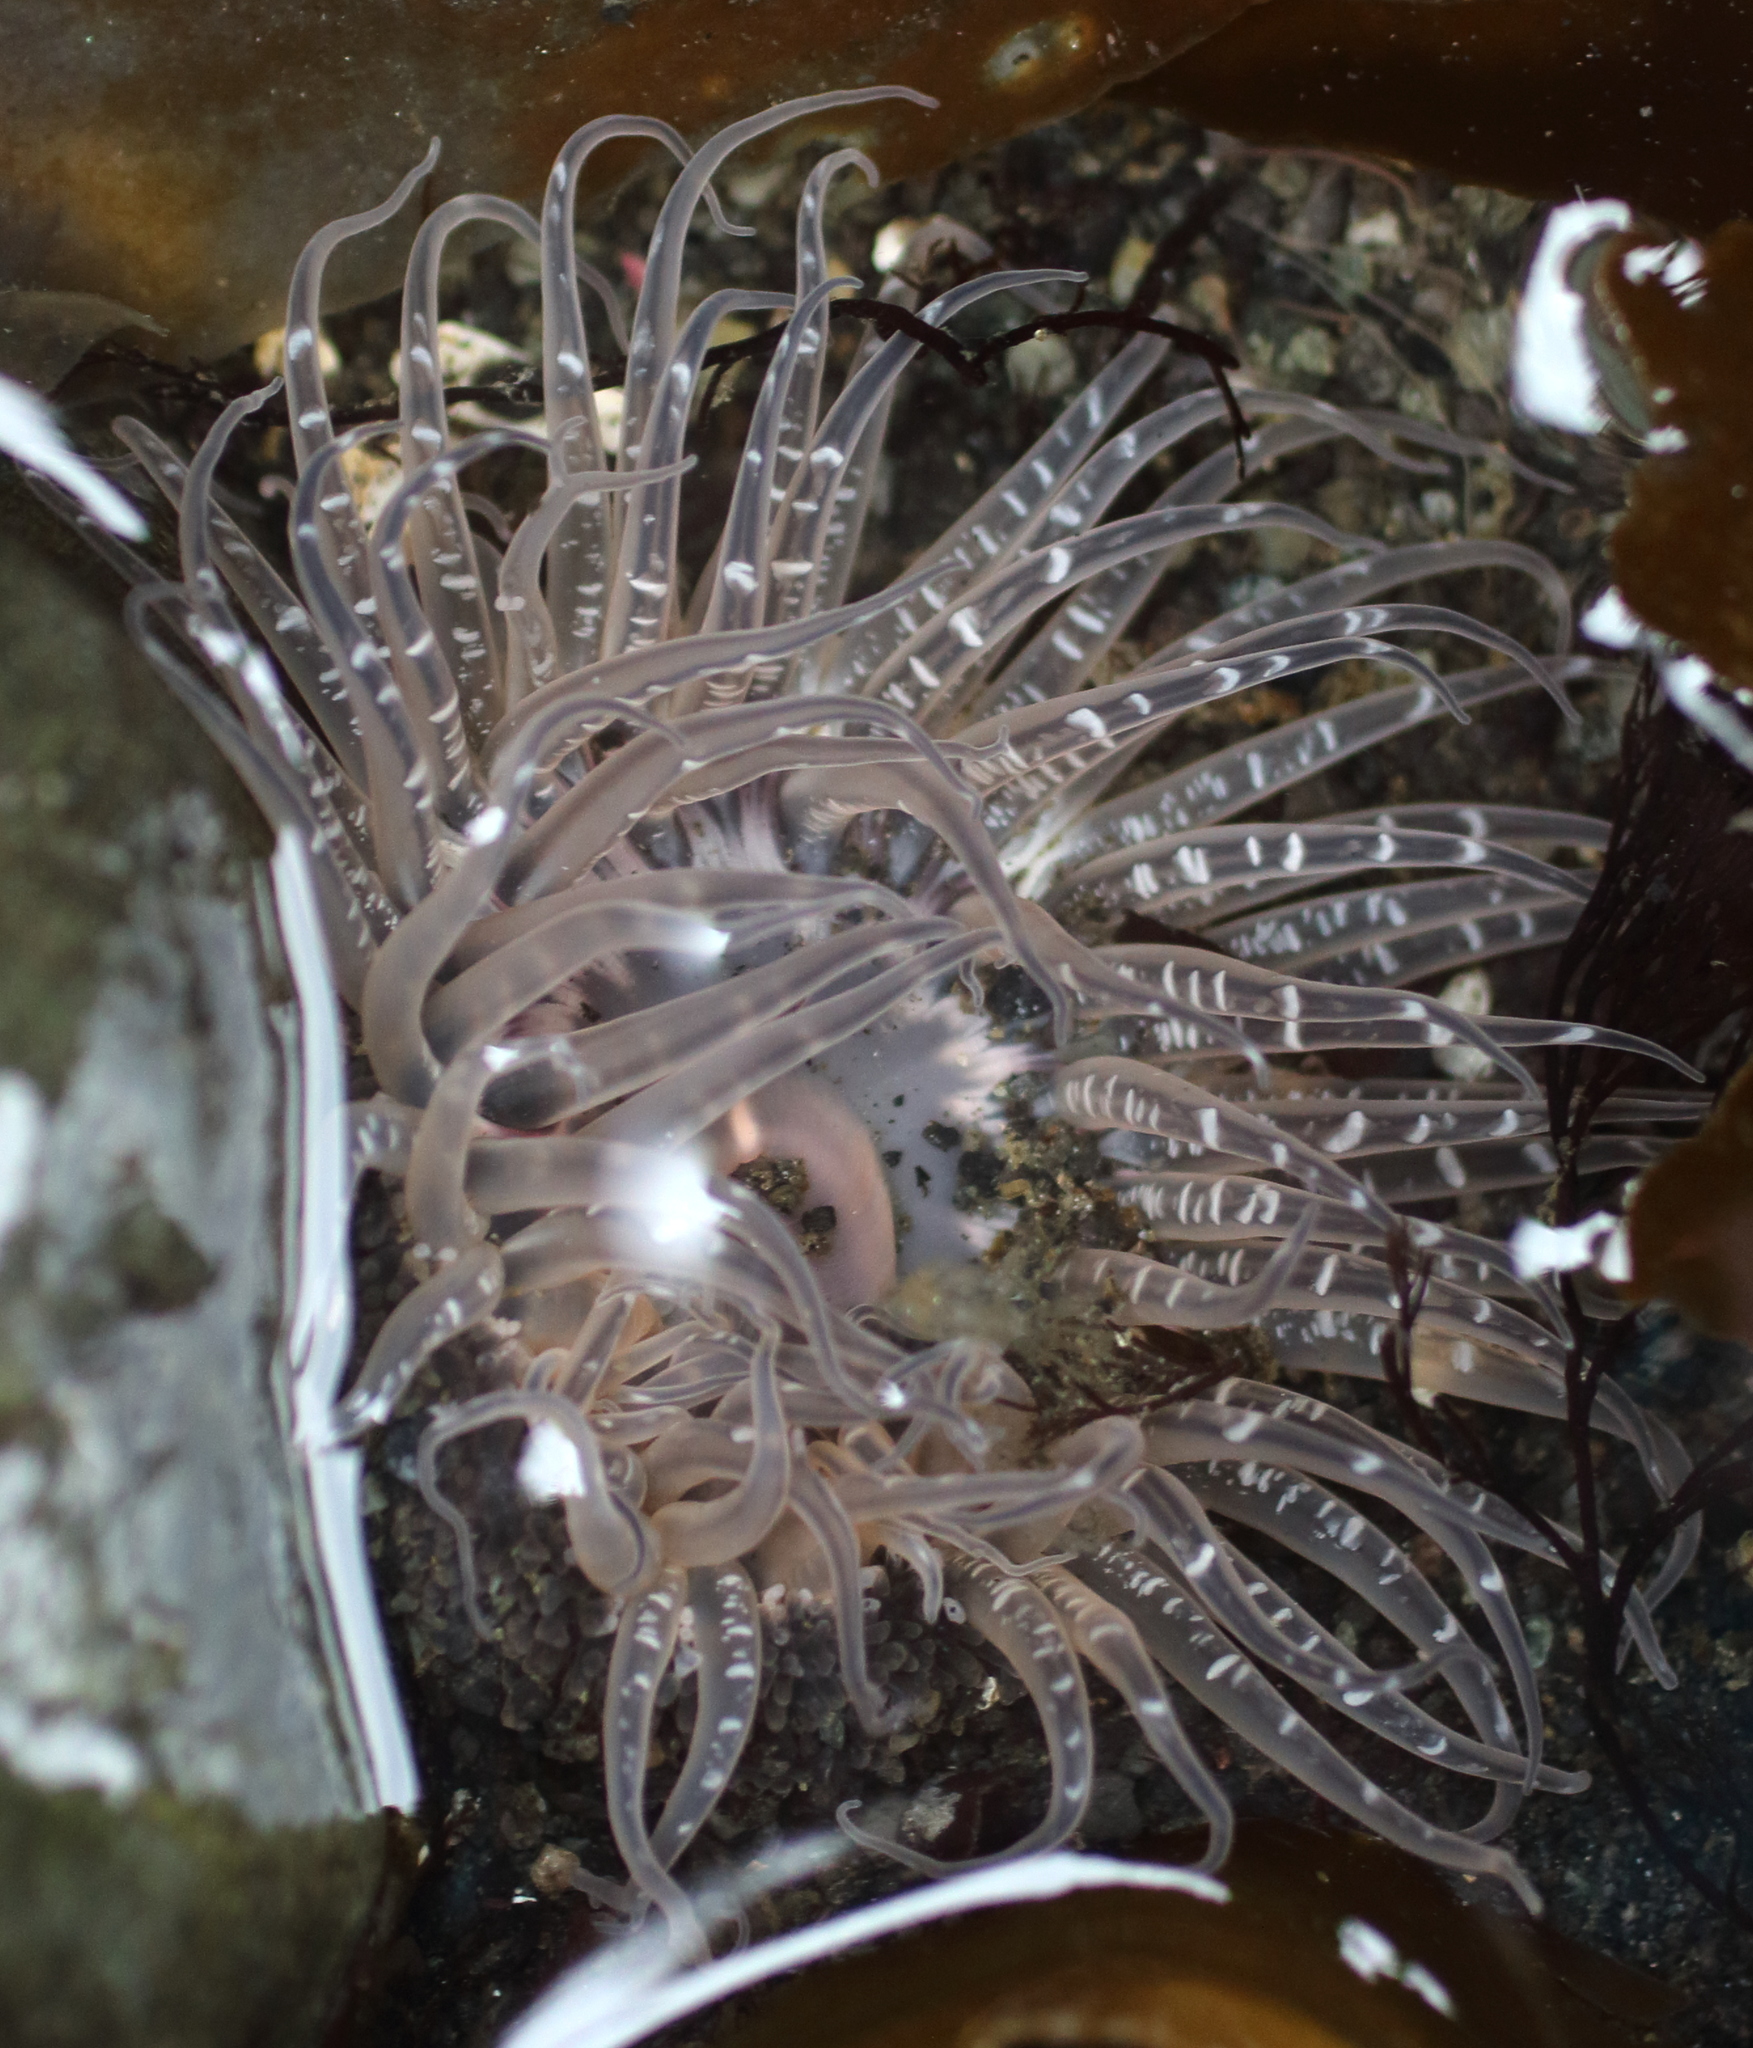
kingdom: Animalia
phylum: Cnidaria
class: Anthozoa
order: Actiniaria
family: Actiniidae
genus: Anthopleura
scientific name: Anthopleura artemisia
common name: Buried sea anemone
